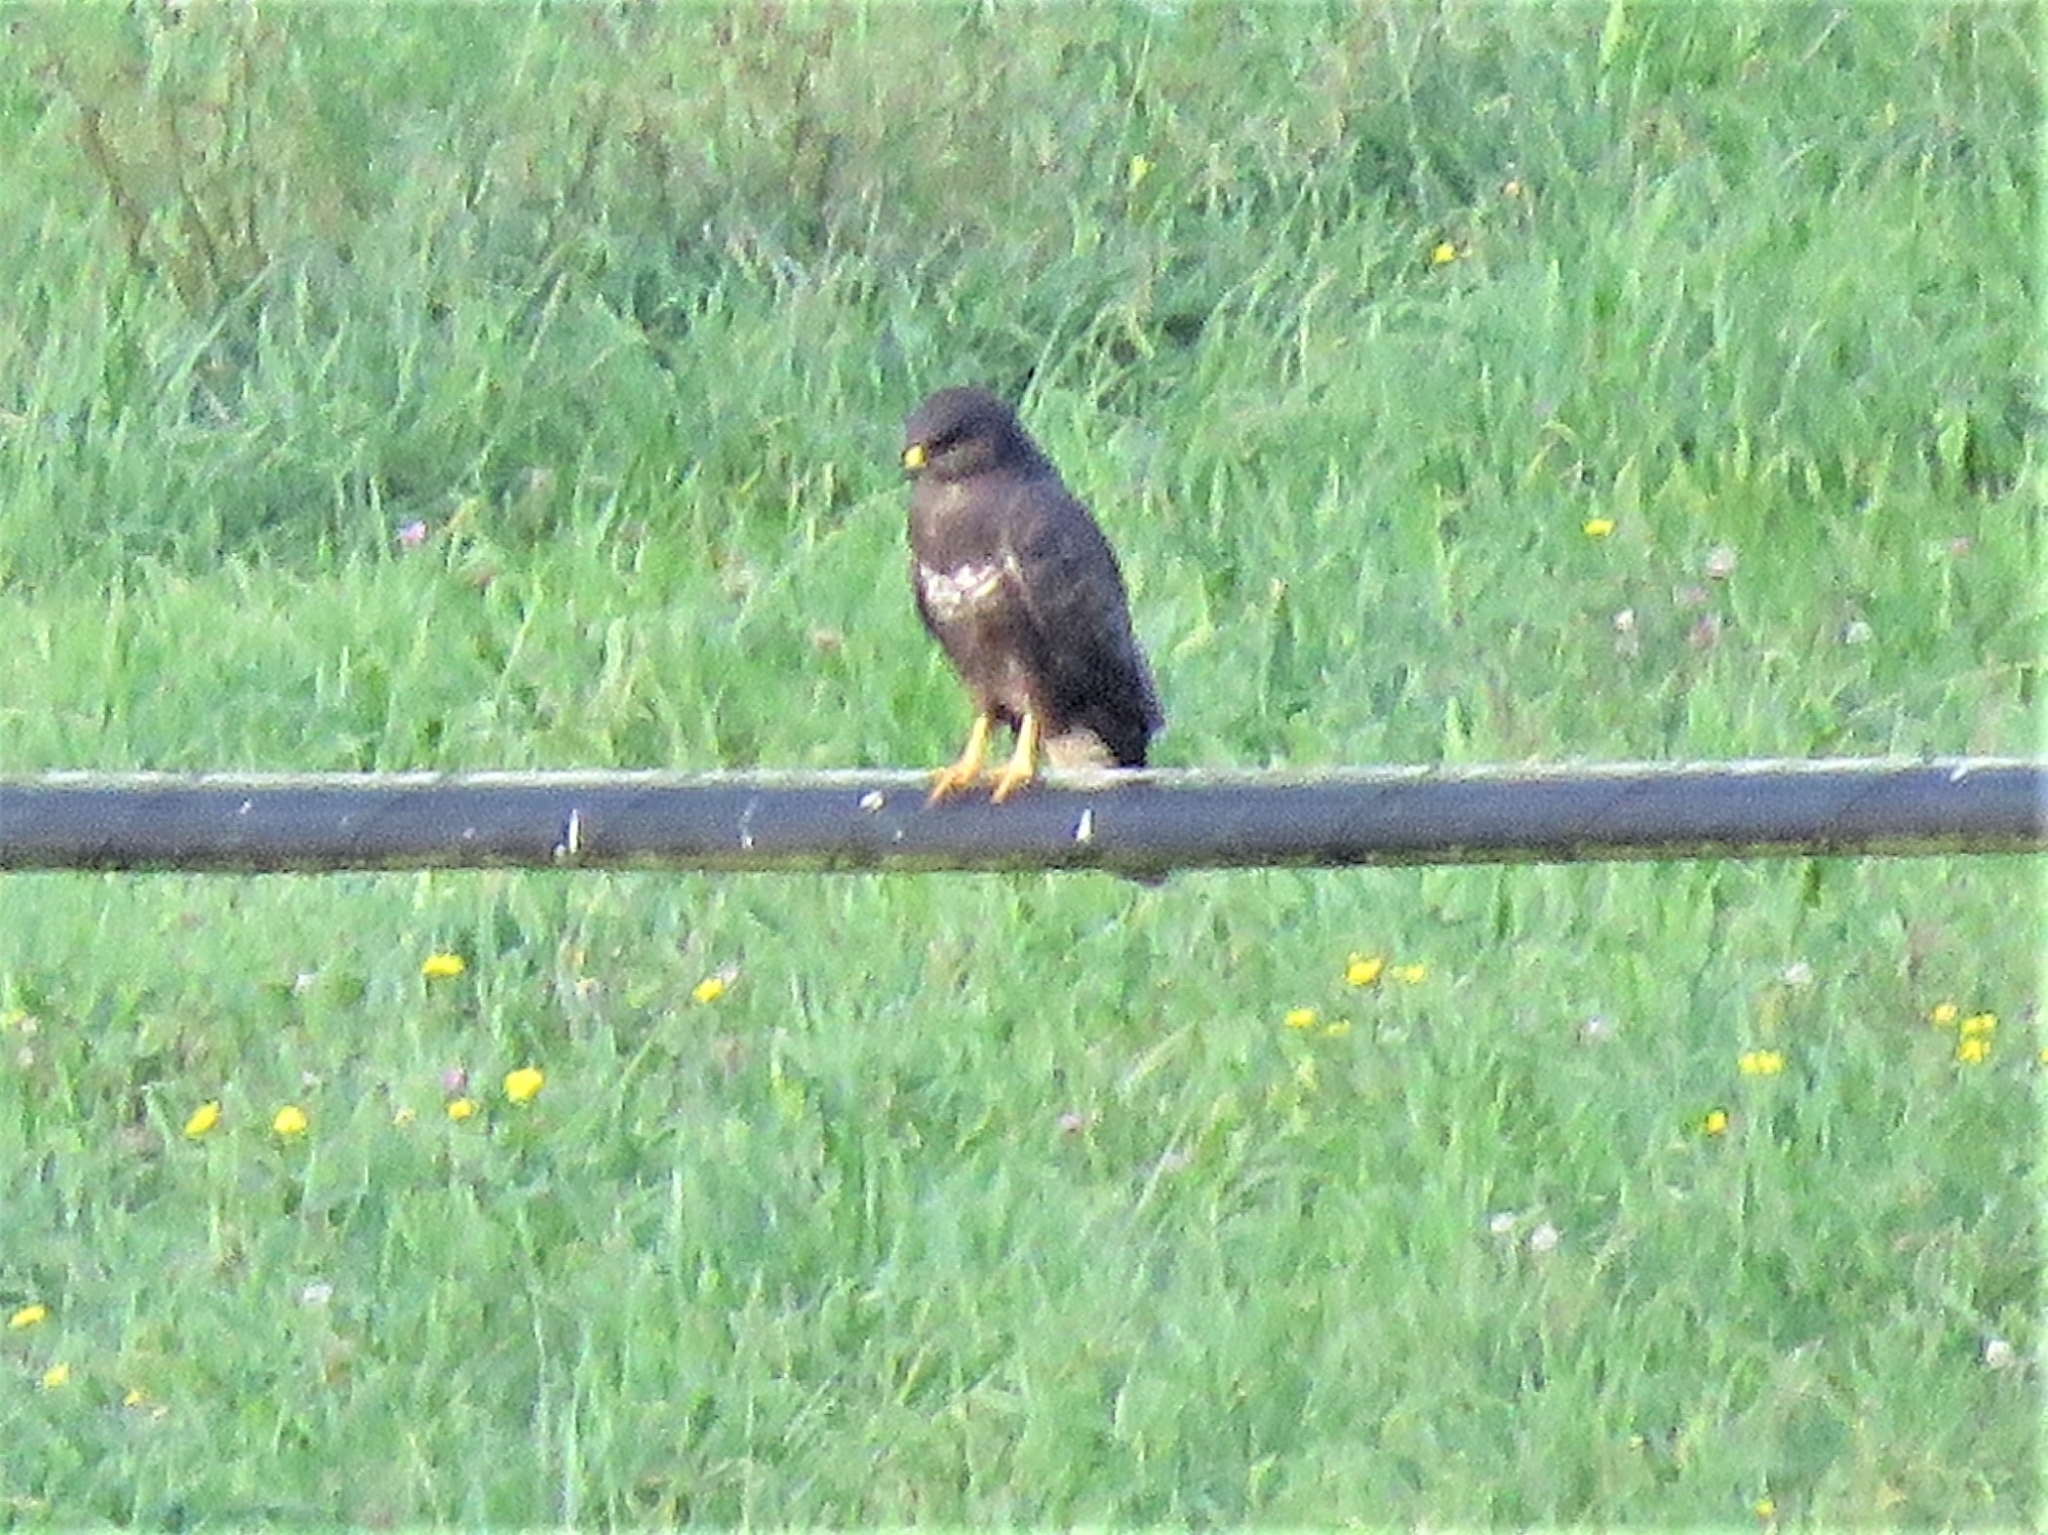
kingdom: Animalia
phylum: Chordata
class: Aves
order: Accipitriformes
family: Accipitridae
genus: Buteo
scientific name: Buteo buteo
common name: Common buzzard
